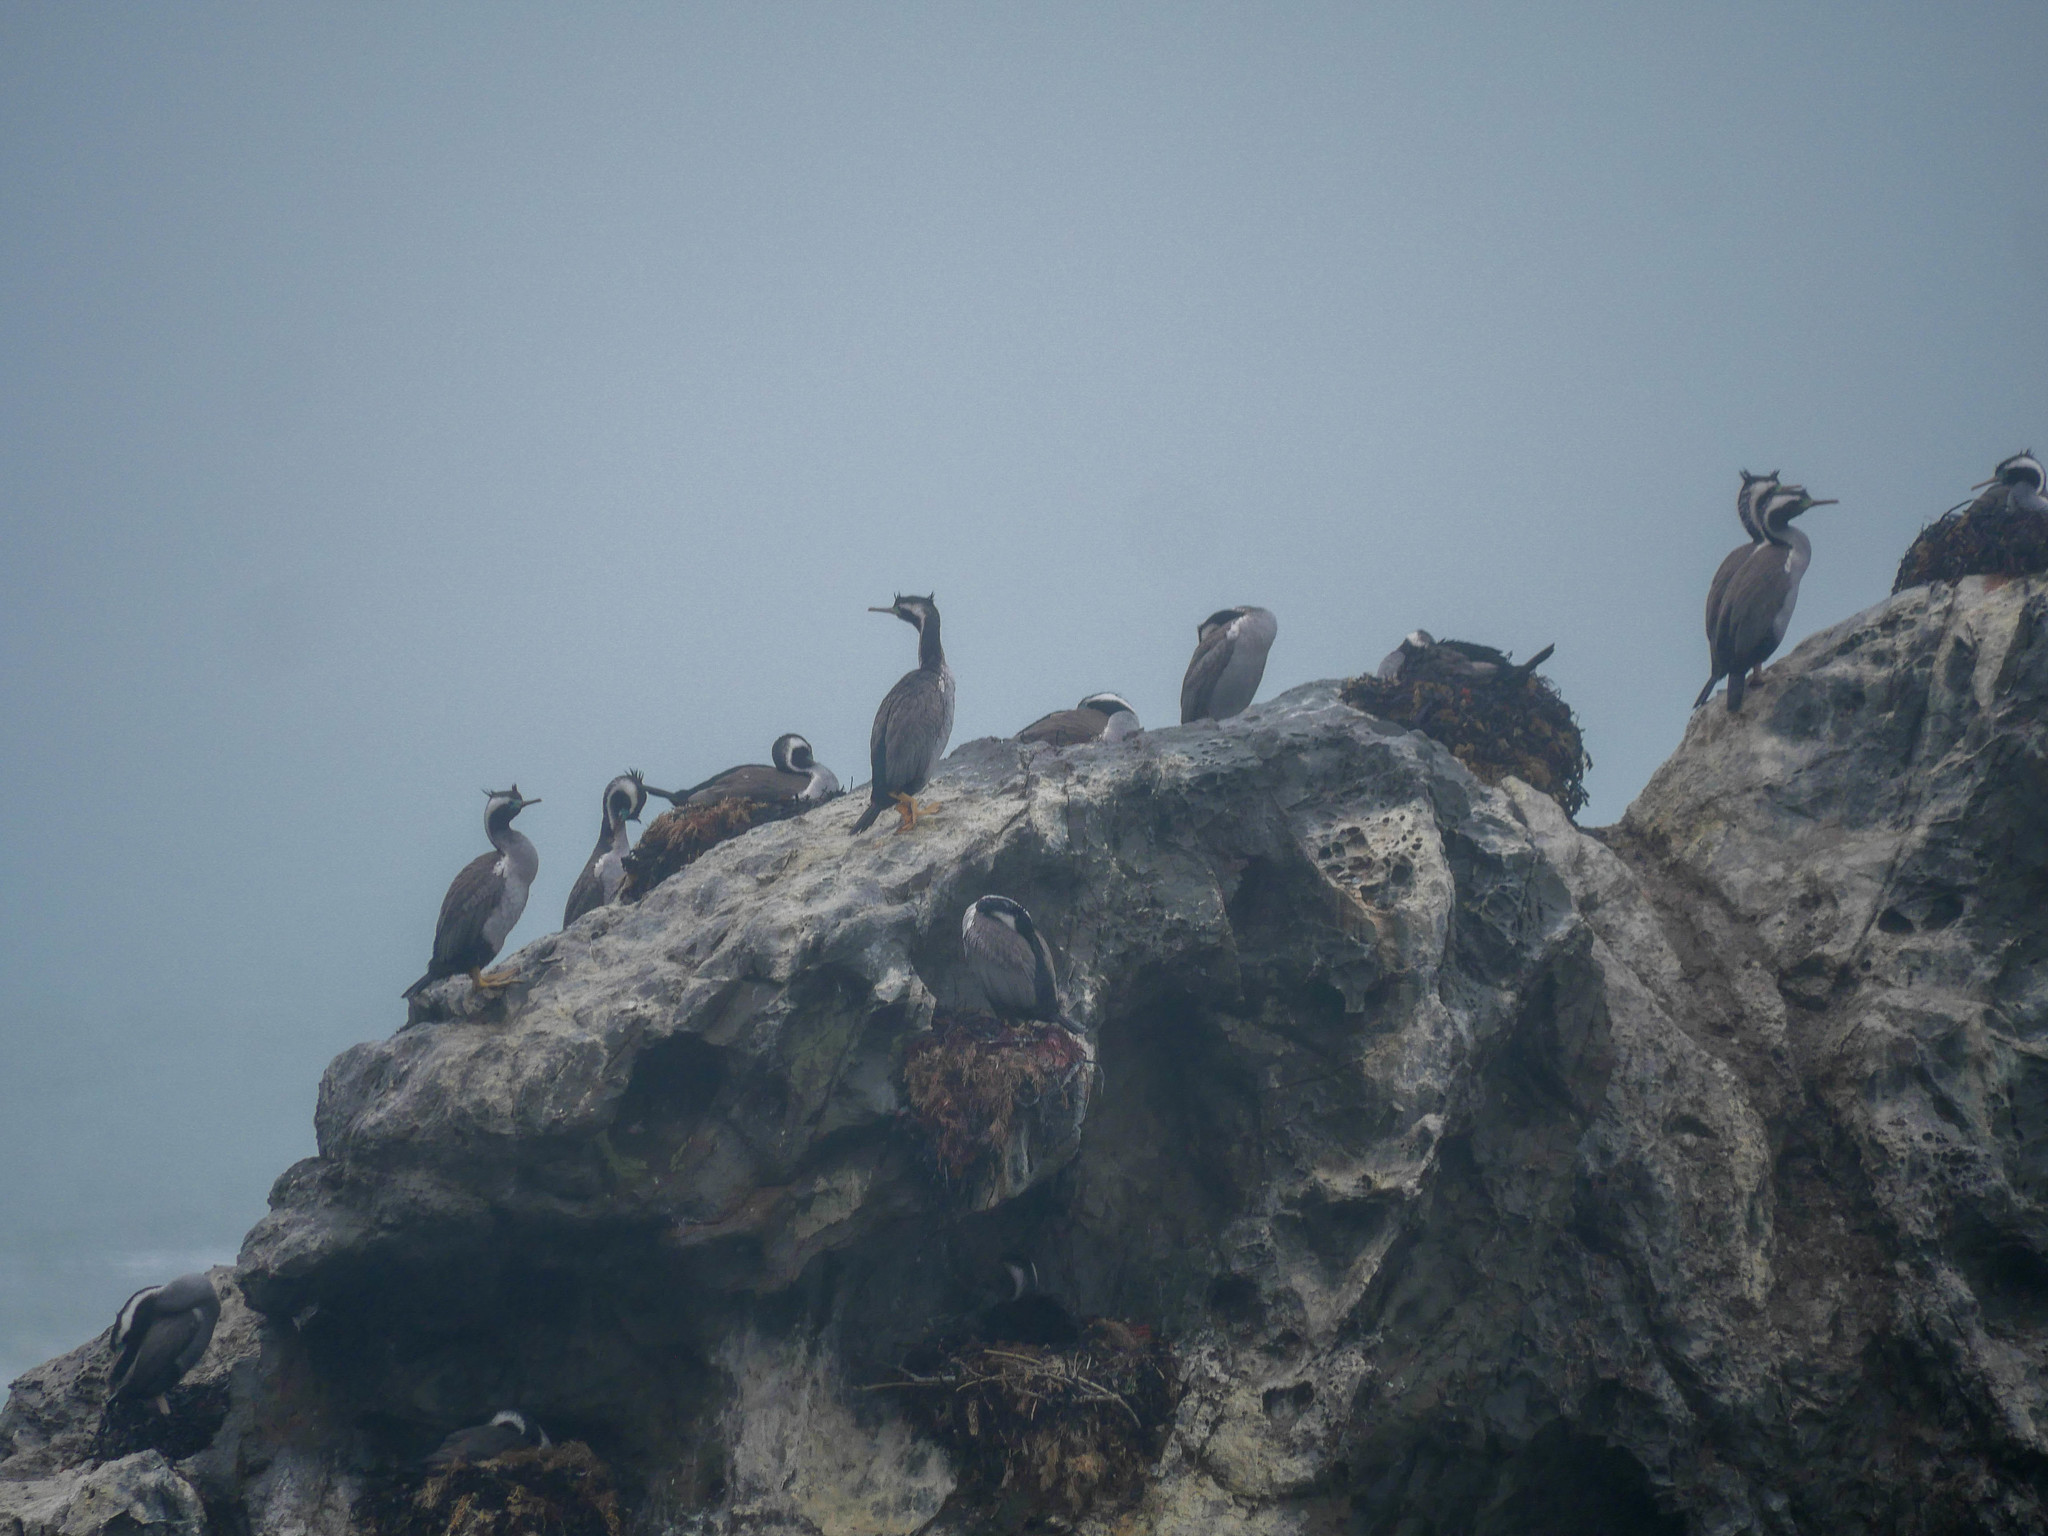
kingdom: Animalia
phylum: Chordata
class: Aves
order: Suliformes
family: Phalacrocoracidae
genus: Phalacrocorax
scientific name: Phalacrocorax punctatus
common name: Spotted shag
